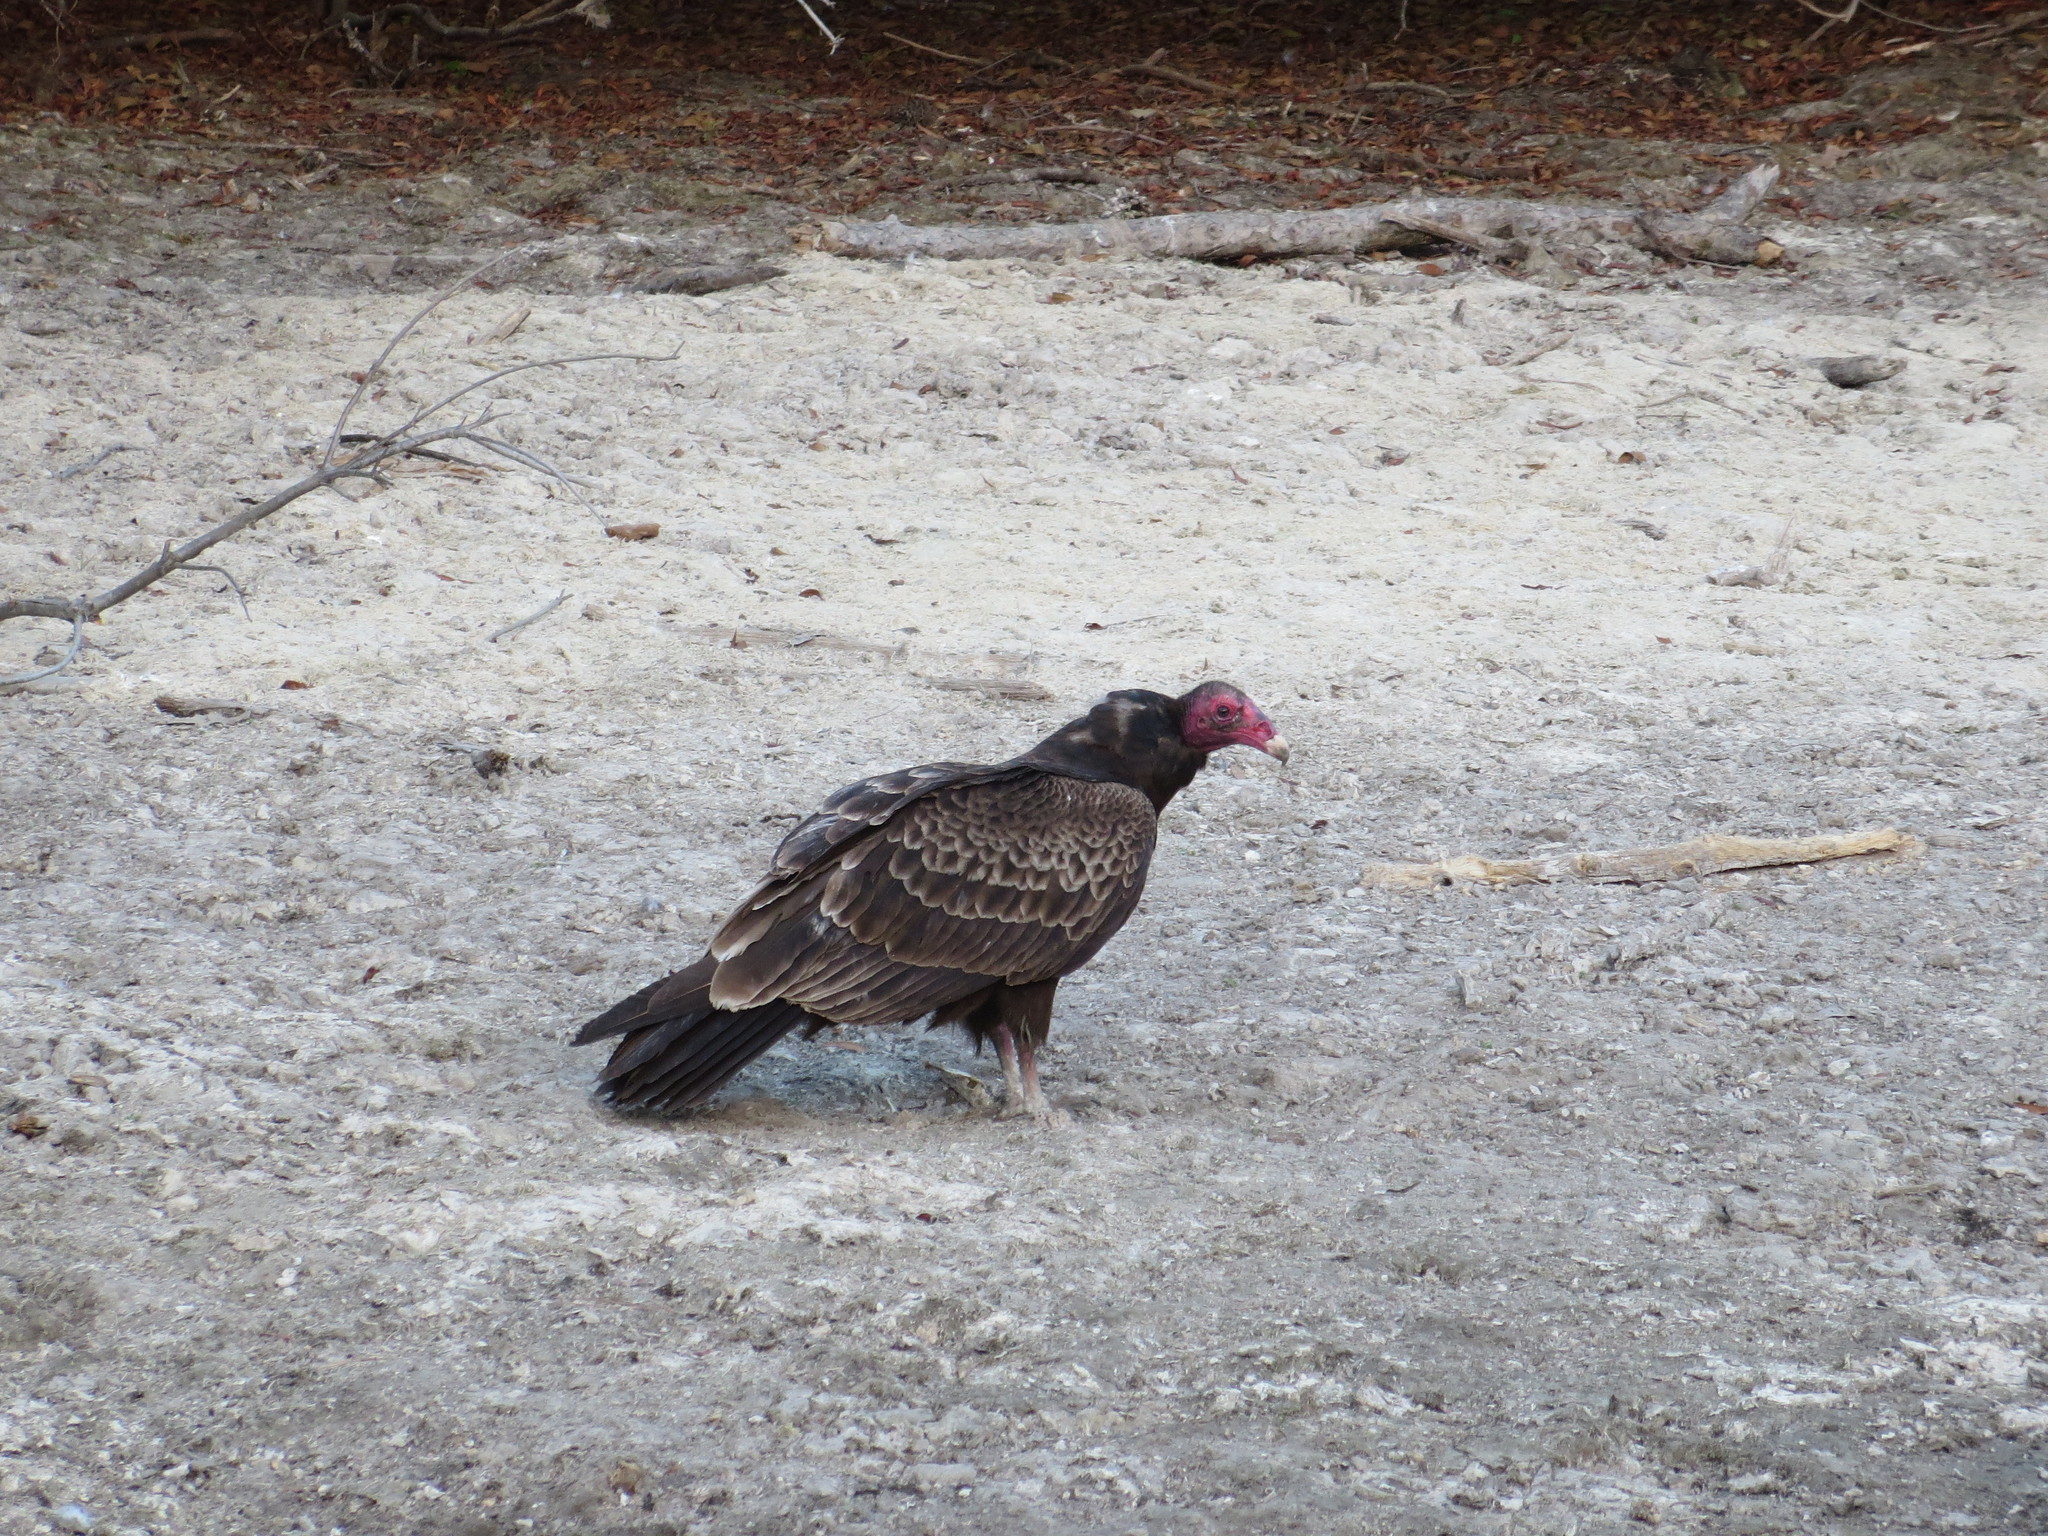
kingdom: Animalia
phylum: Chordata
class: Aves
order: Accipitriformes
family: Cathartidae
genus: Cathartes
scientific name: Cathartes aura
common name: Turkey vulture
